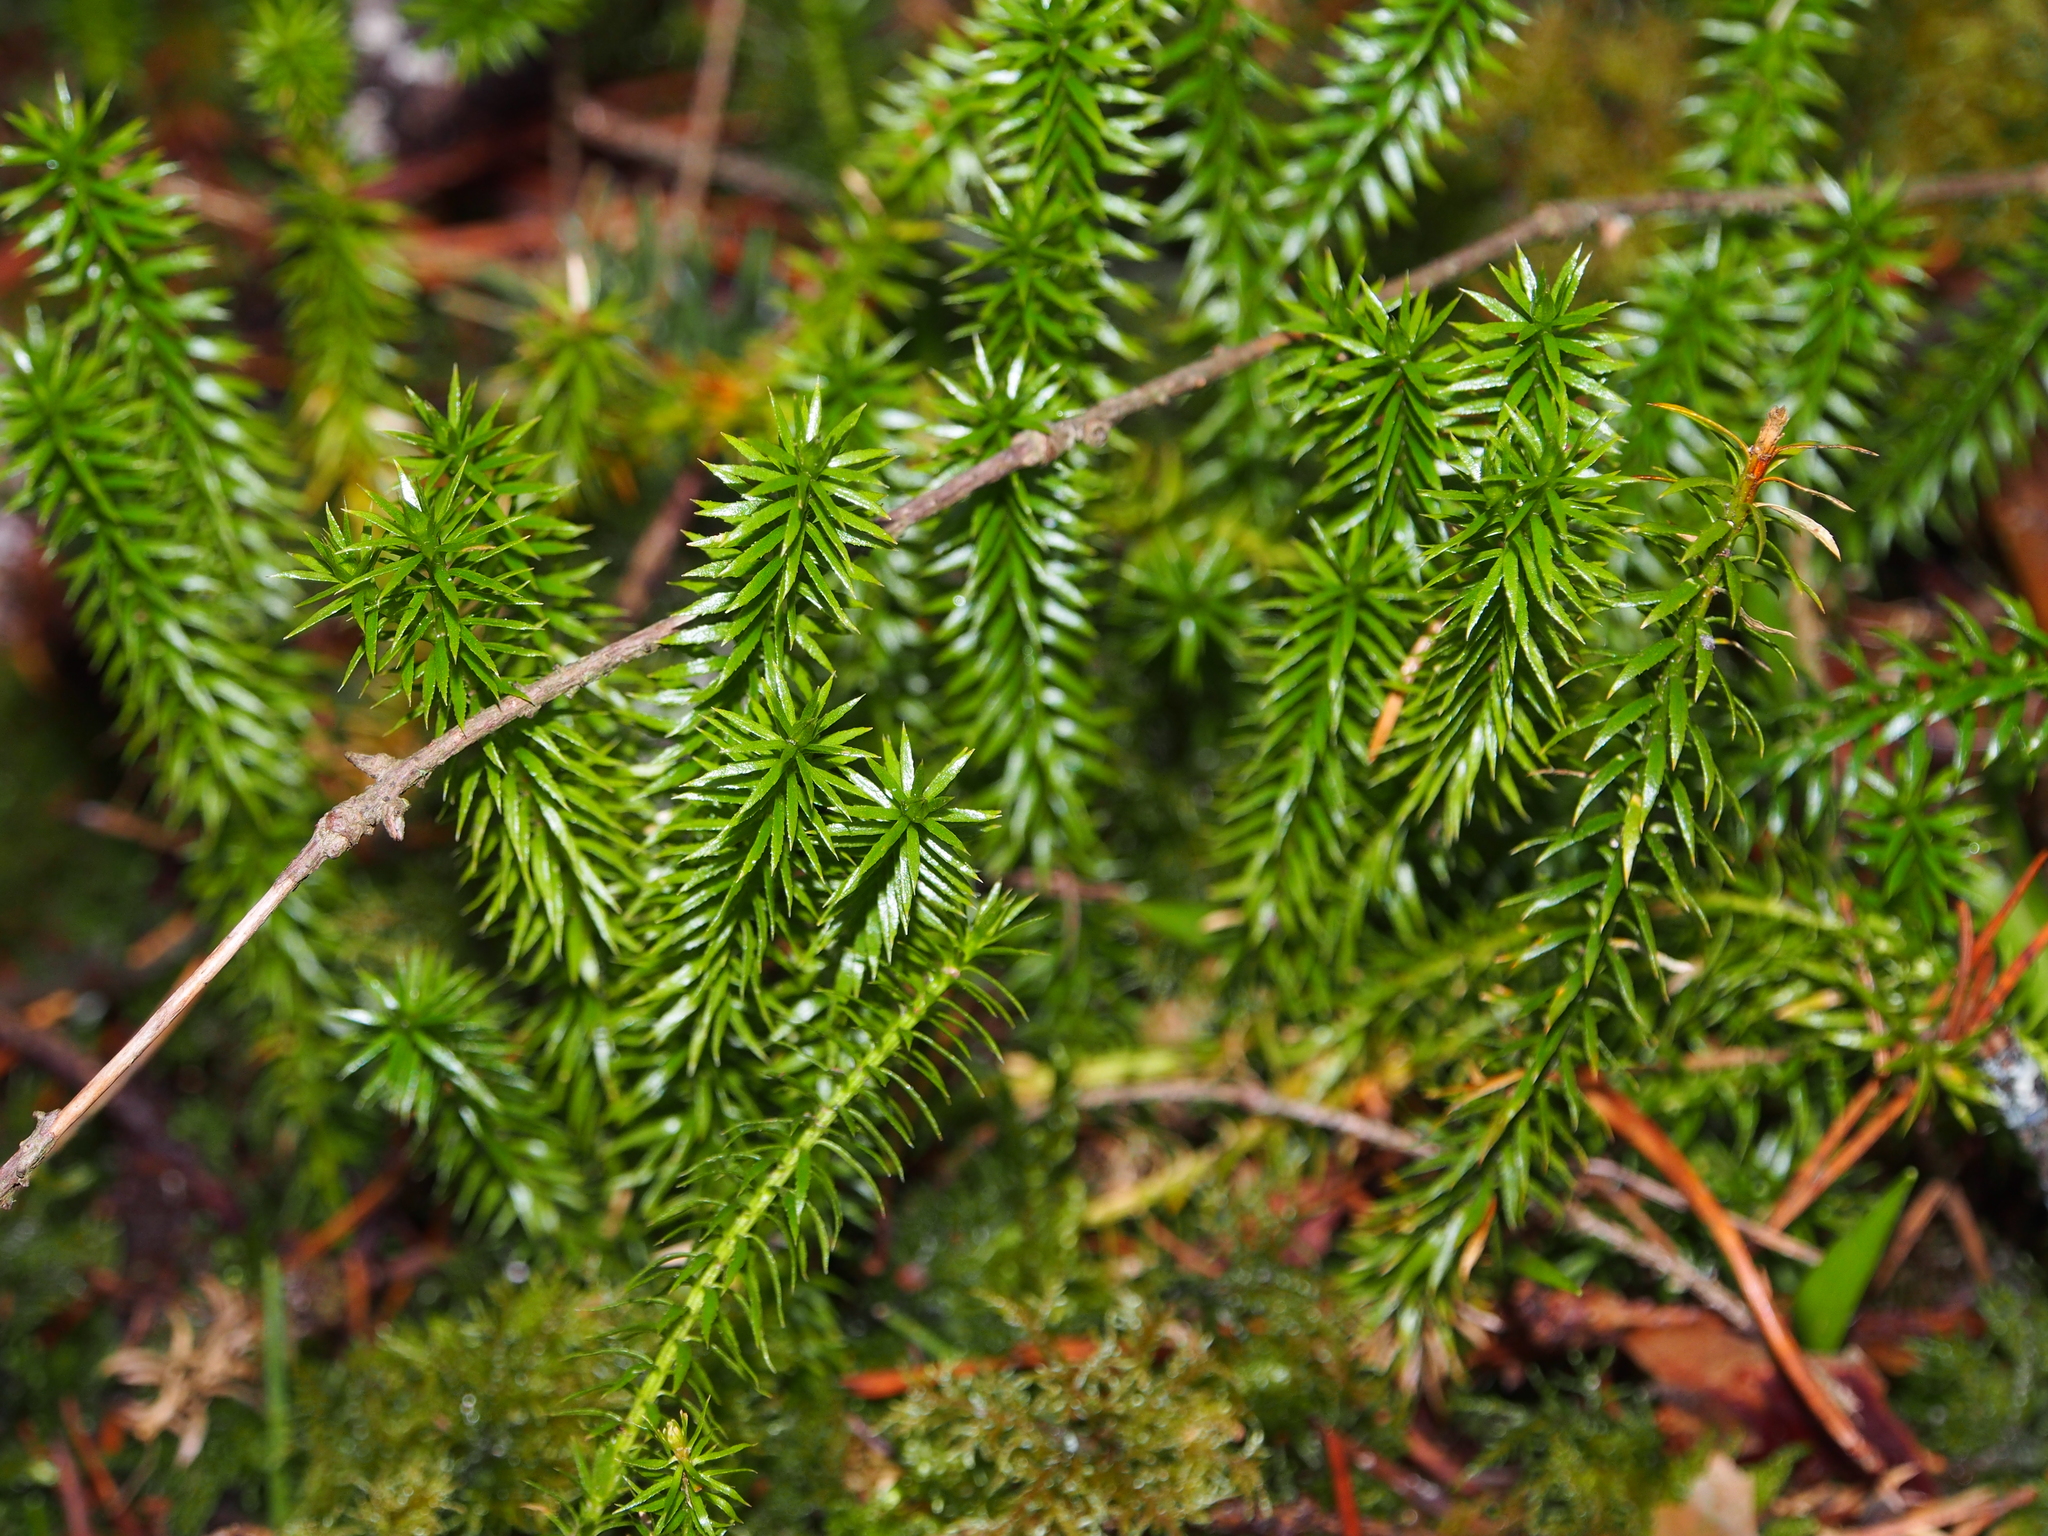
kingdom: Plantae
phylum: Tracheophyta
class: Lycopodiopsida
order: Lycopodiales
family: Lycopodiaceae
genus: Spinulum
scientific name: Spinulum annotinum
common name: Interrupted club-moss
